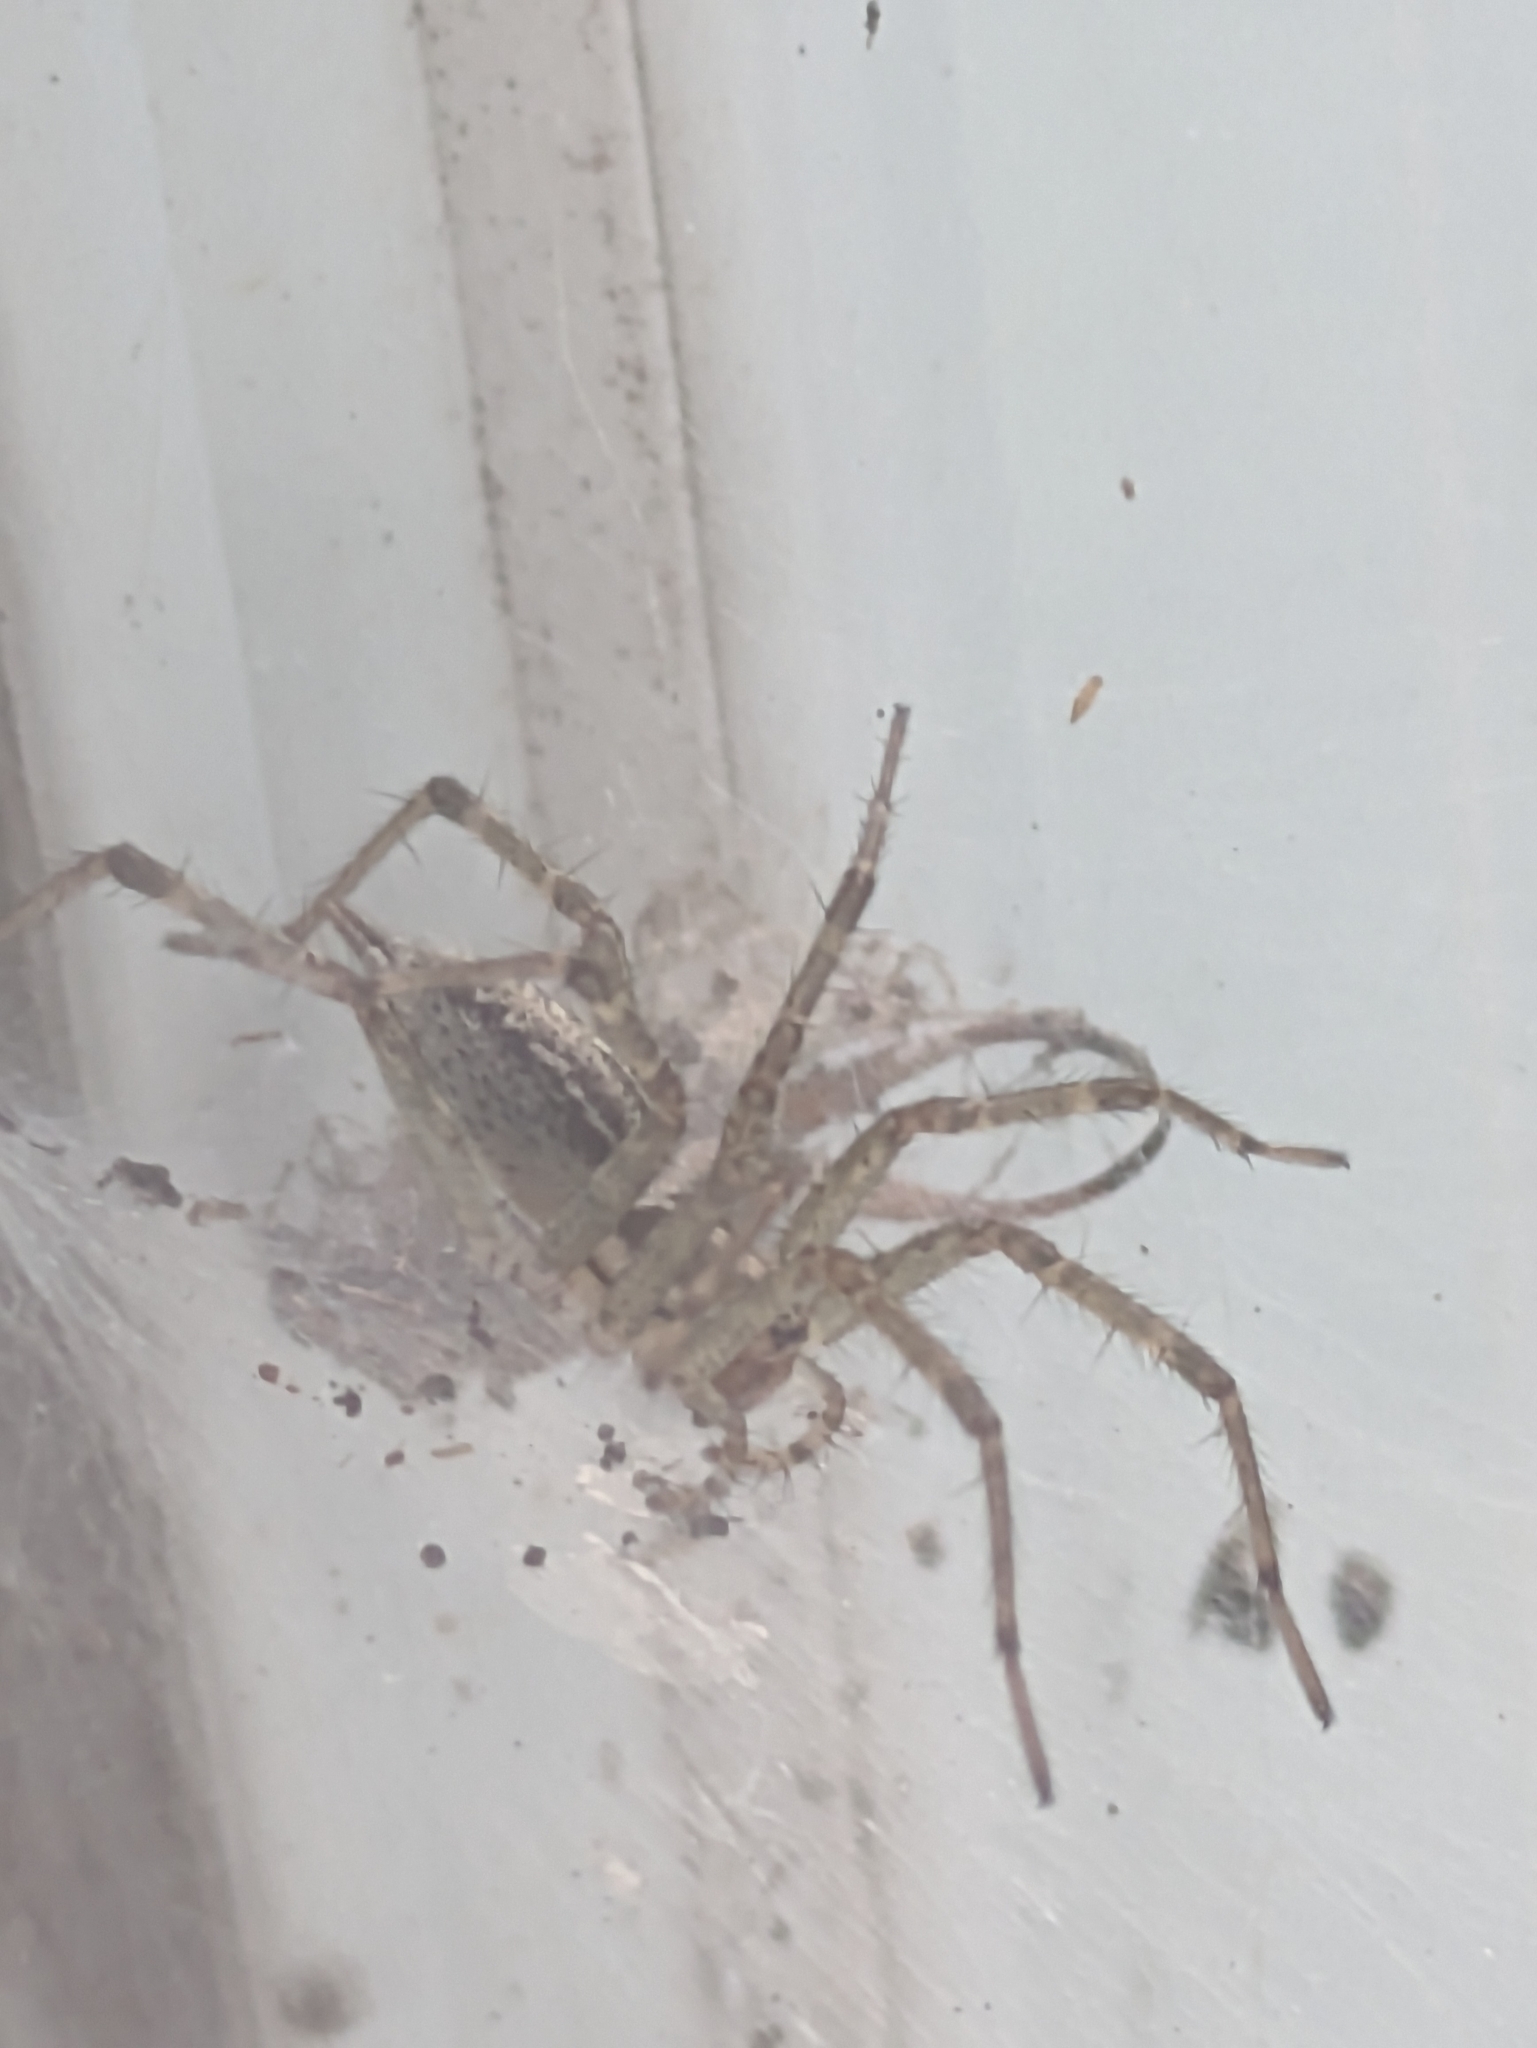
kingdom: Animalia
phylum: Arthropoda
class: Arachnida
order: Araneae
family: Agelenidae
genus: Agelenopsis
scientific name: Agelenopsis
